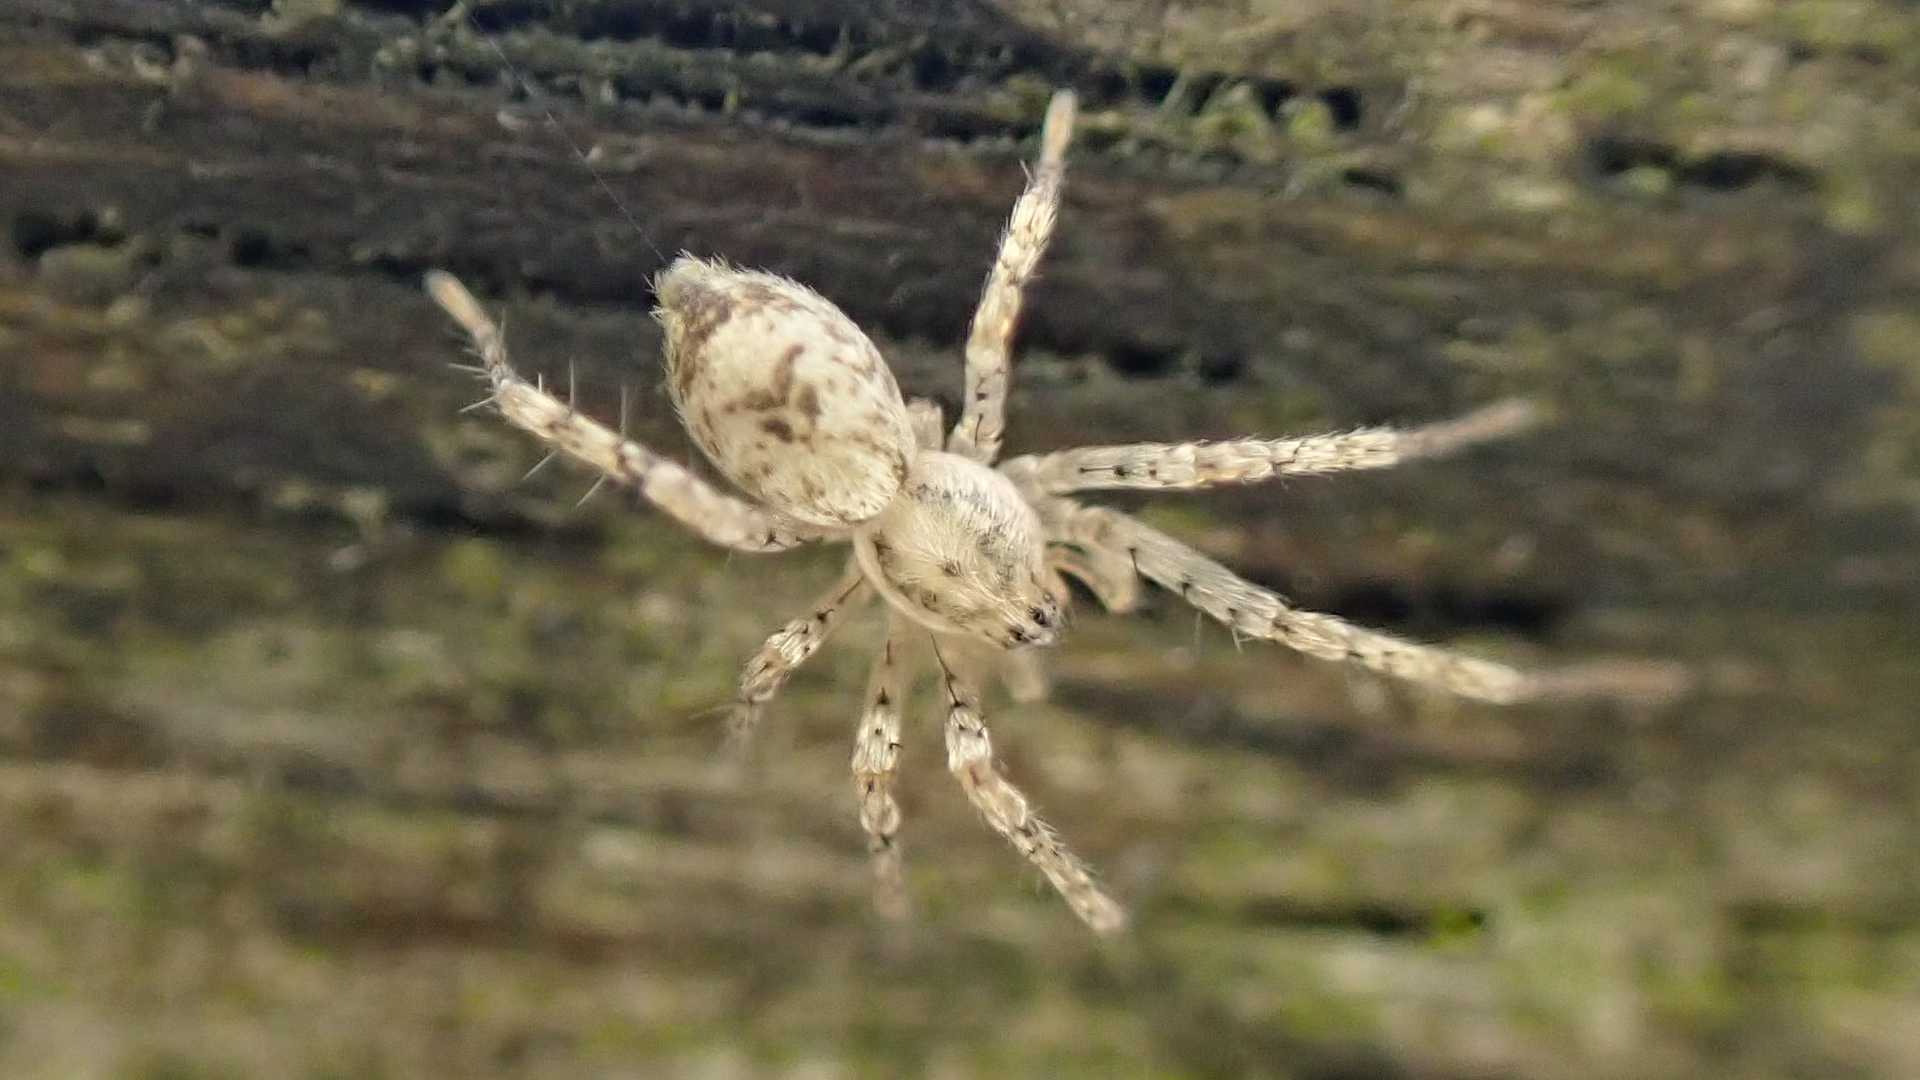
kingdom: Animalia
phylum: Arthropoda
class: Arachnida
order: Araneae
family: Anyphaenidae
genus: Anyphaena
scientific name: Anyphaena accentuata
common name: Buzzing spider
